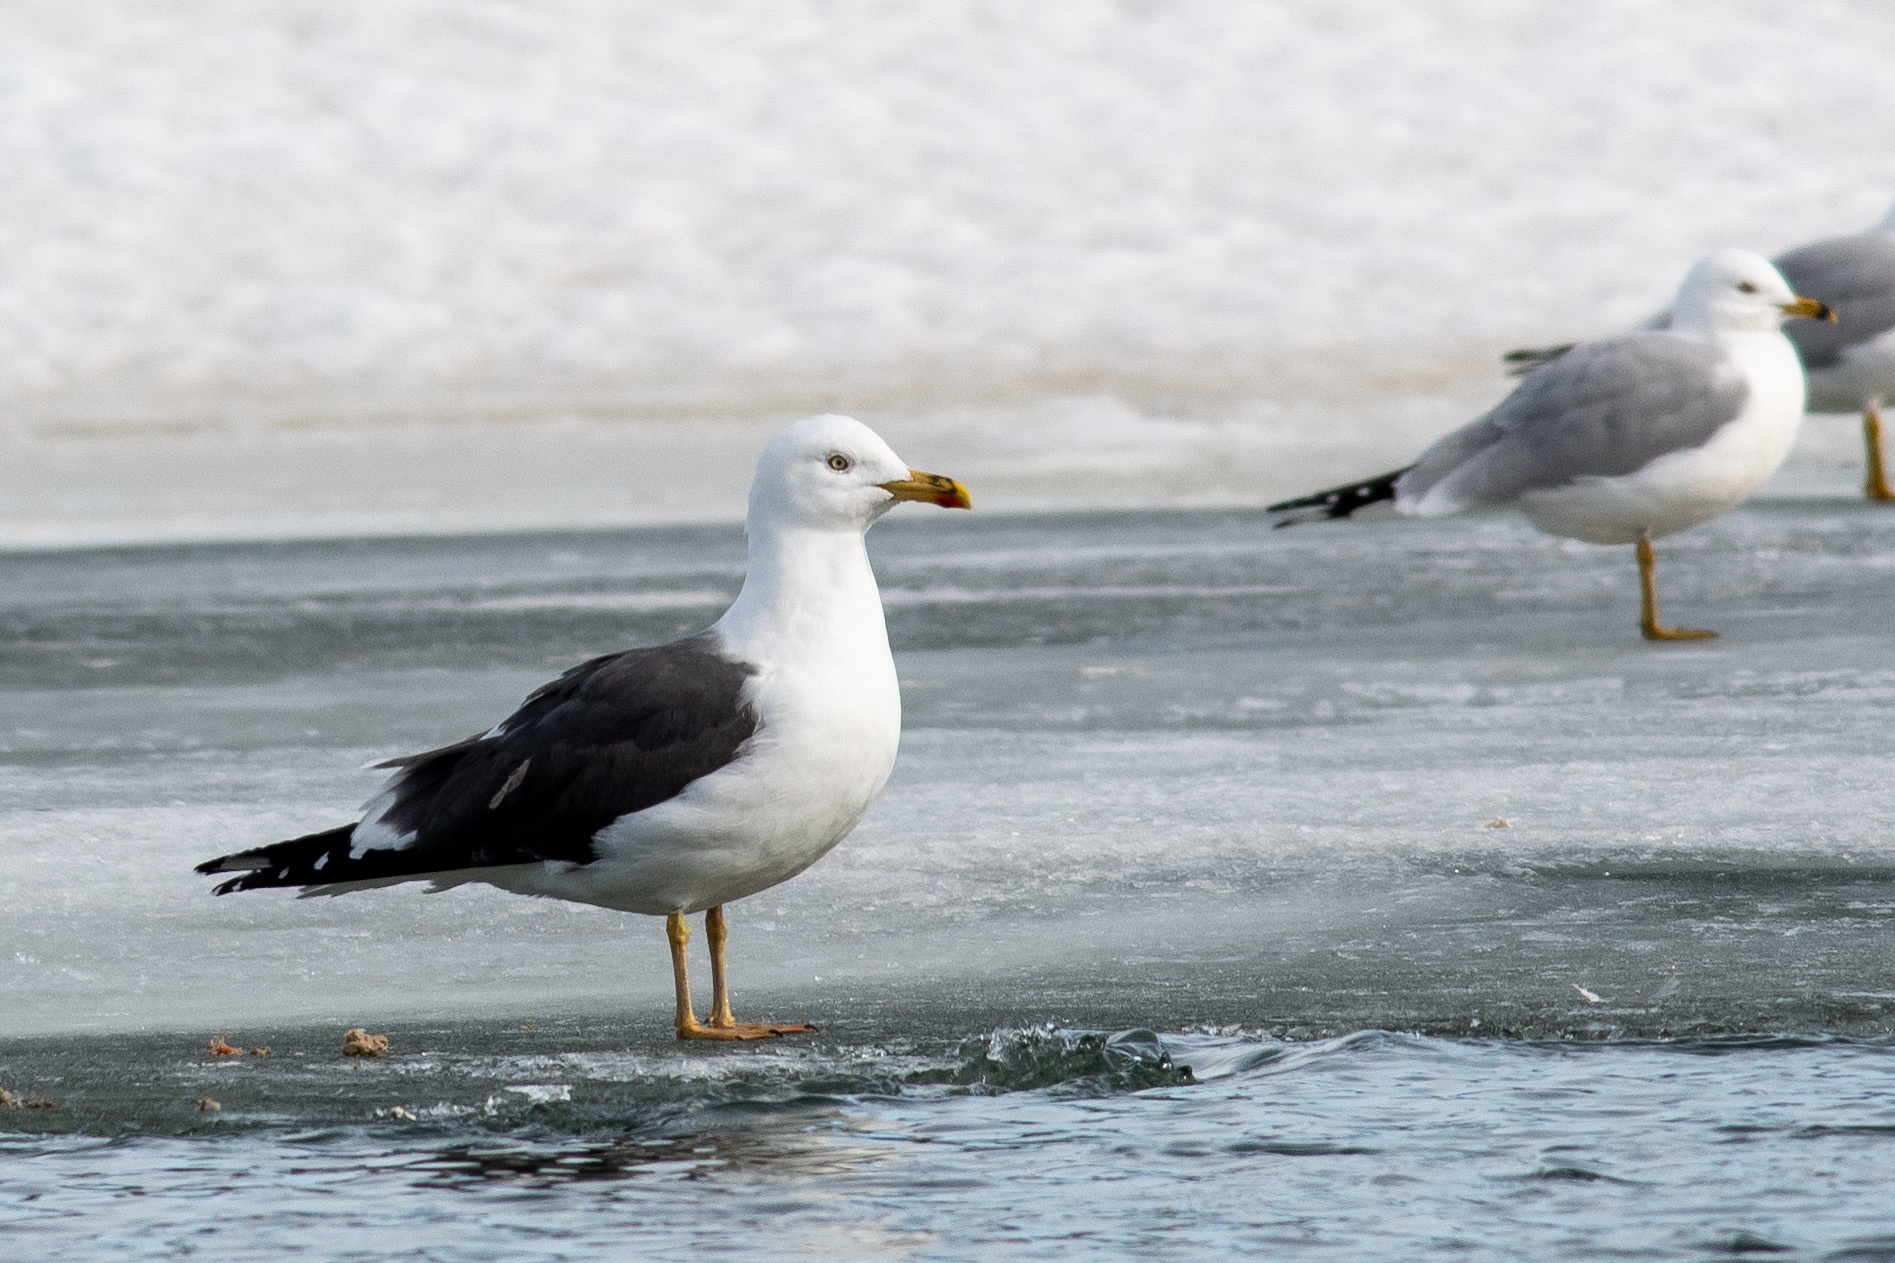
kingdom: Animalia
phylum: Chordata
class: Aves
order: Charadriiformes
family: Laridae
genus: Larus
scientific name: Larus fuscus
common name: Lesser black-backed gull
